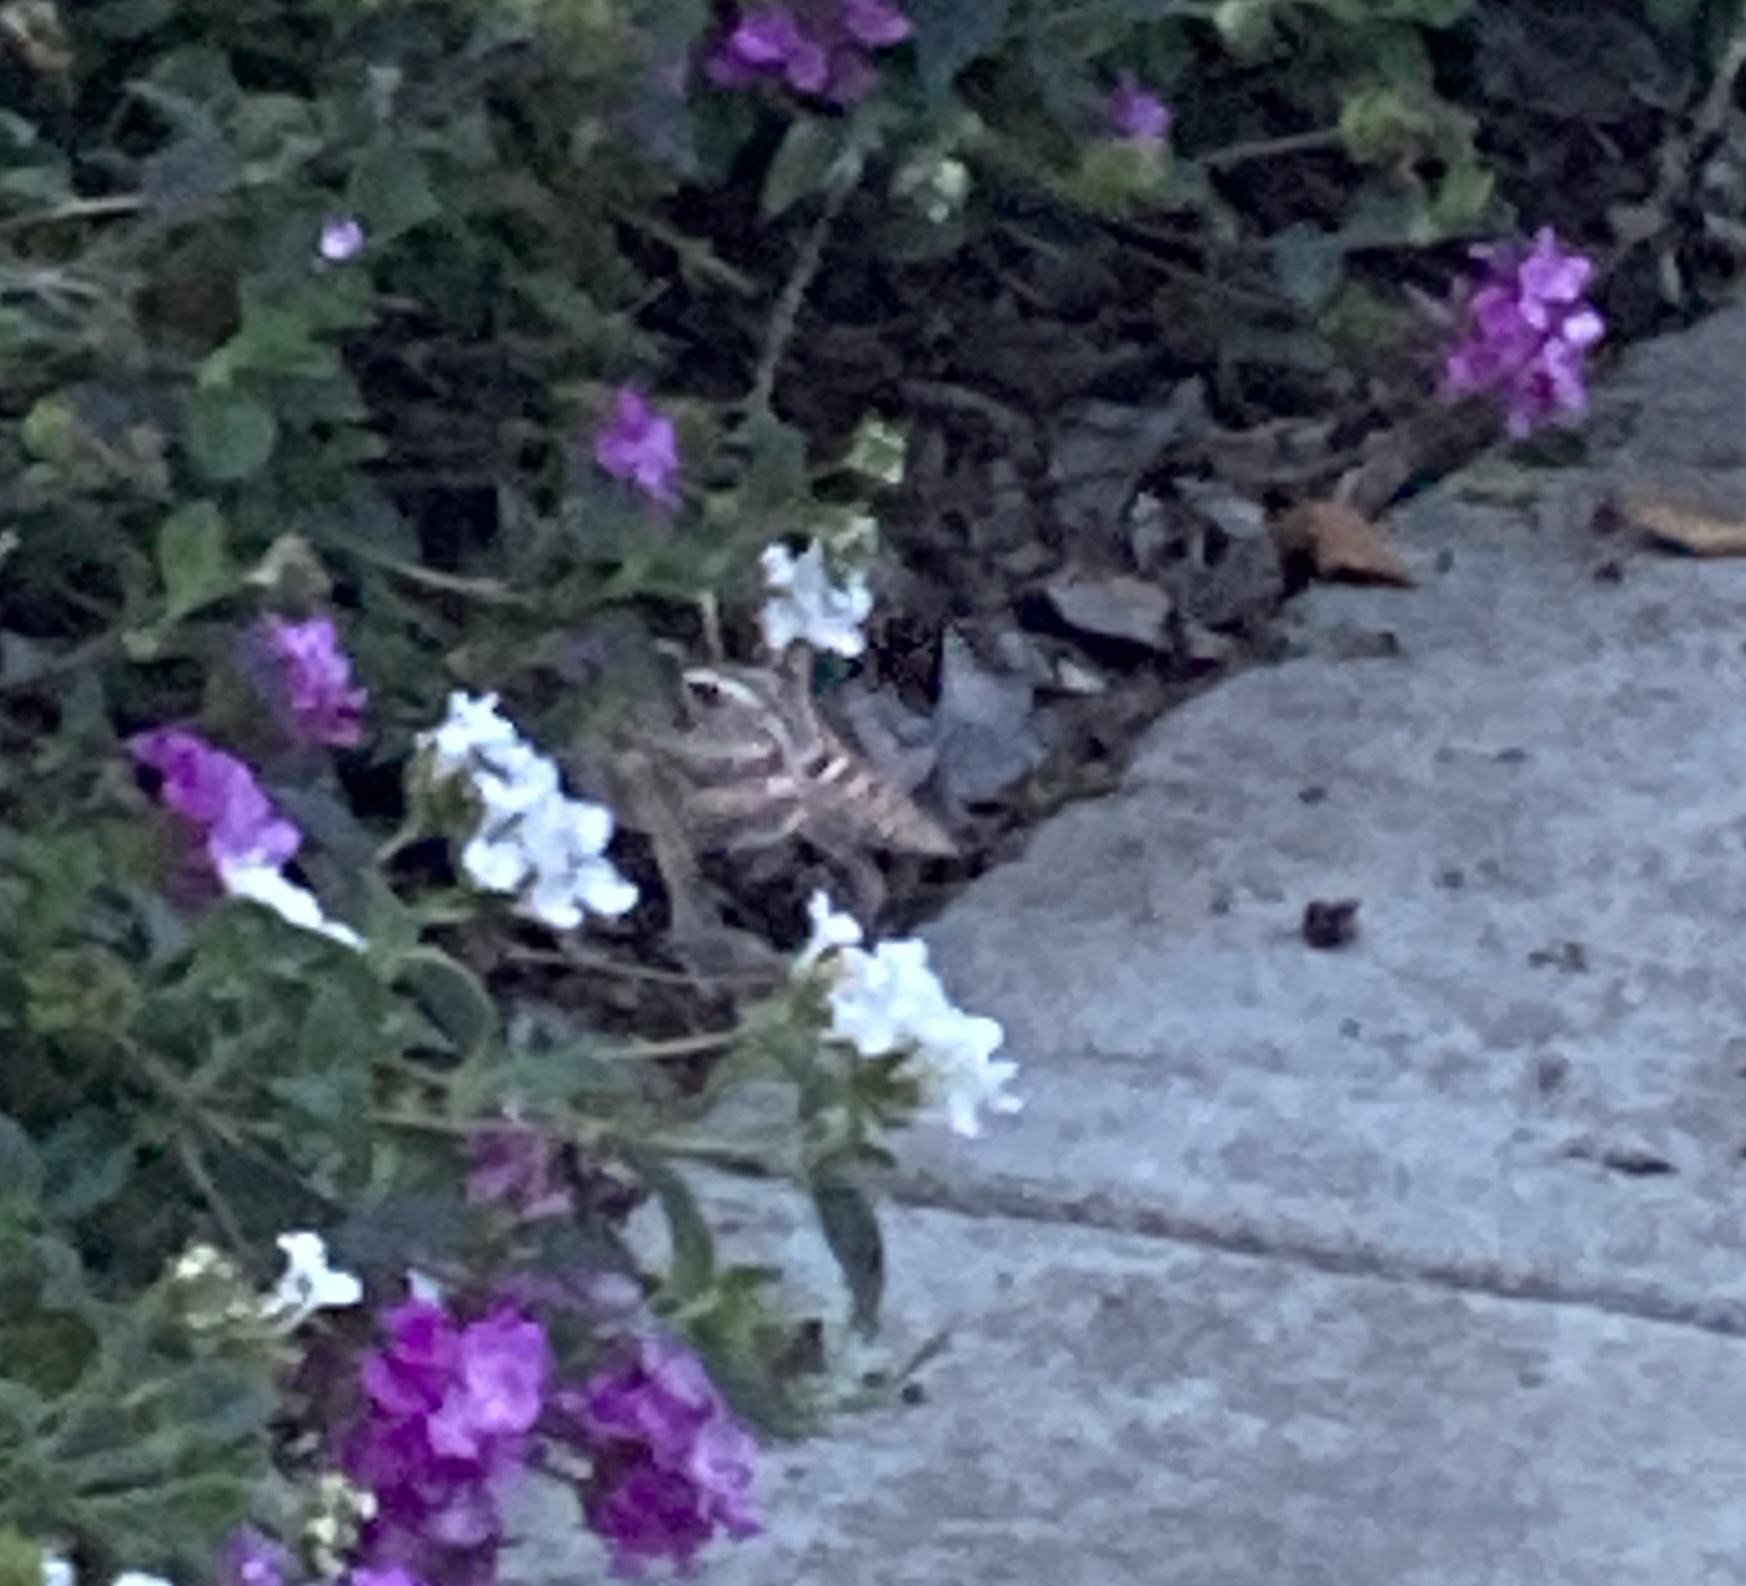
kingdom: Animalia
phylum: Arthropoda
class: Insecta
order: Lepidoptera
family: Sphingidae
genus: Hyles
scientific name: Hyles lineata
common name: White-lined sphinx
